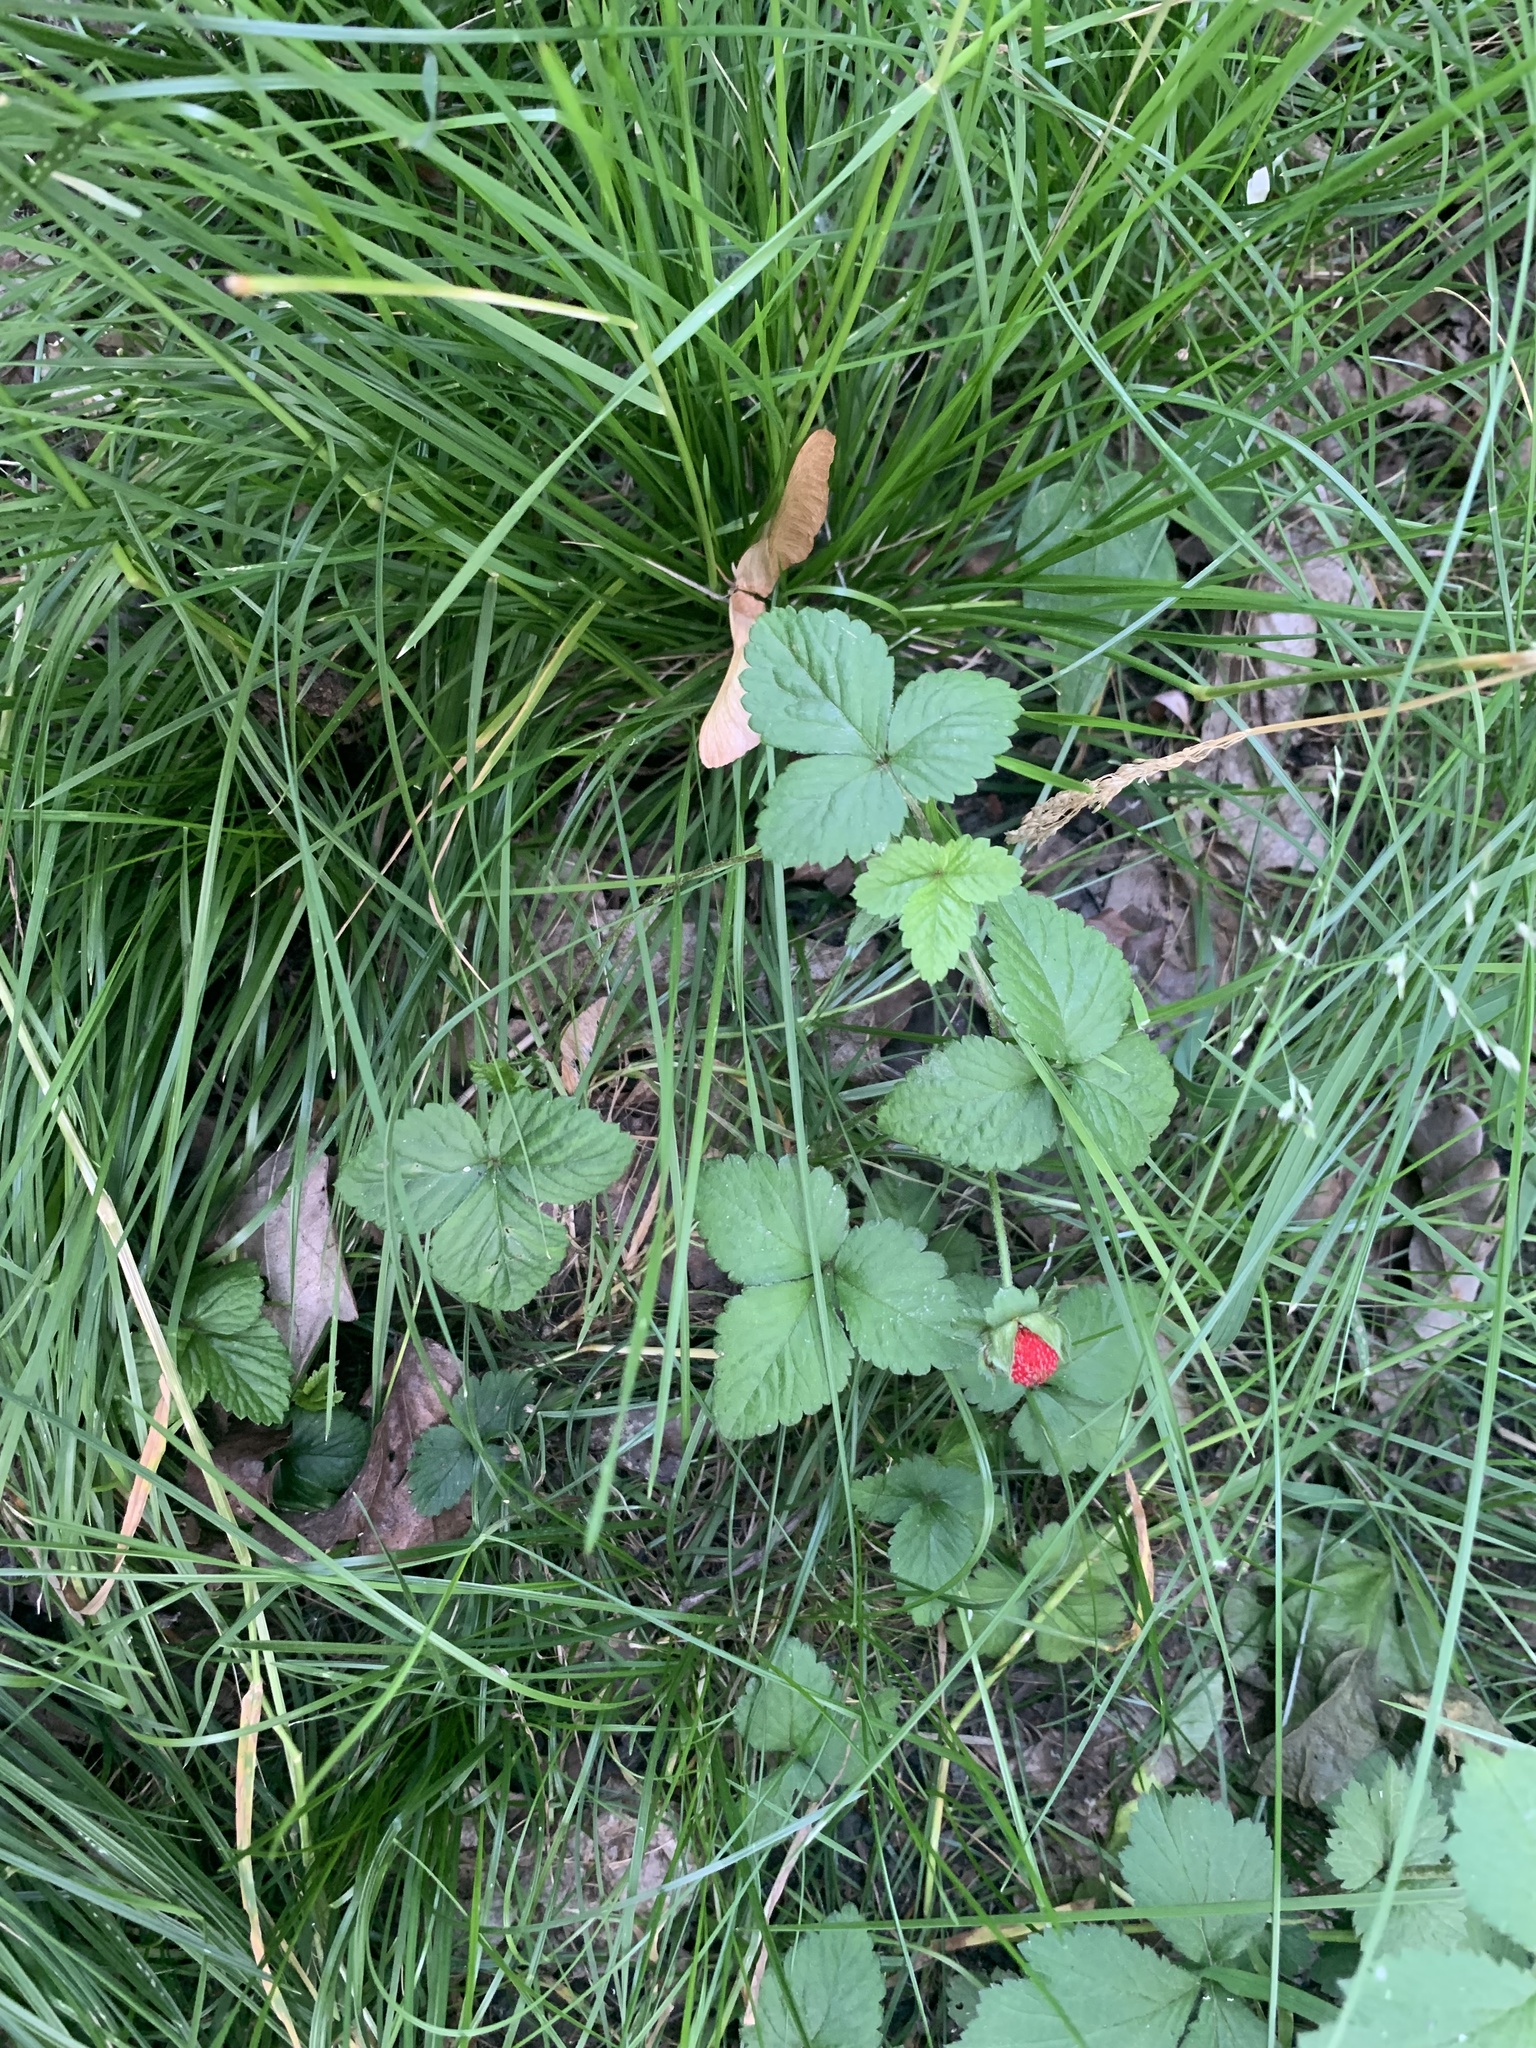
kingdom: Plantae
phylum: Tracheophyta
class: Magnoliopsida
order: Rosales
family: Rosaceae
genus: Potentilla
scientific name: Potentilla indica
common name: Yellow-flowered strawberry
